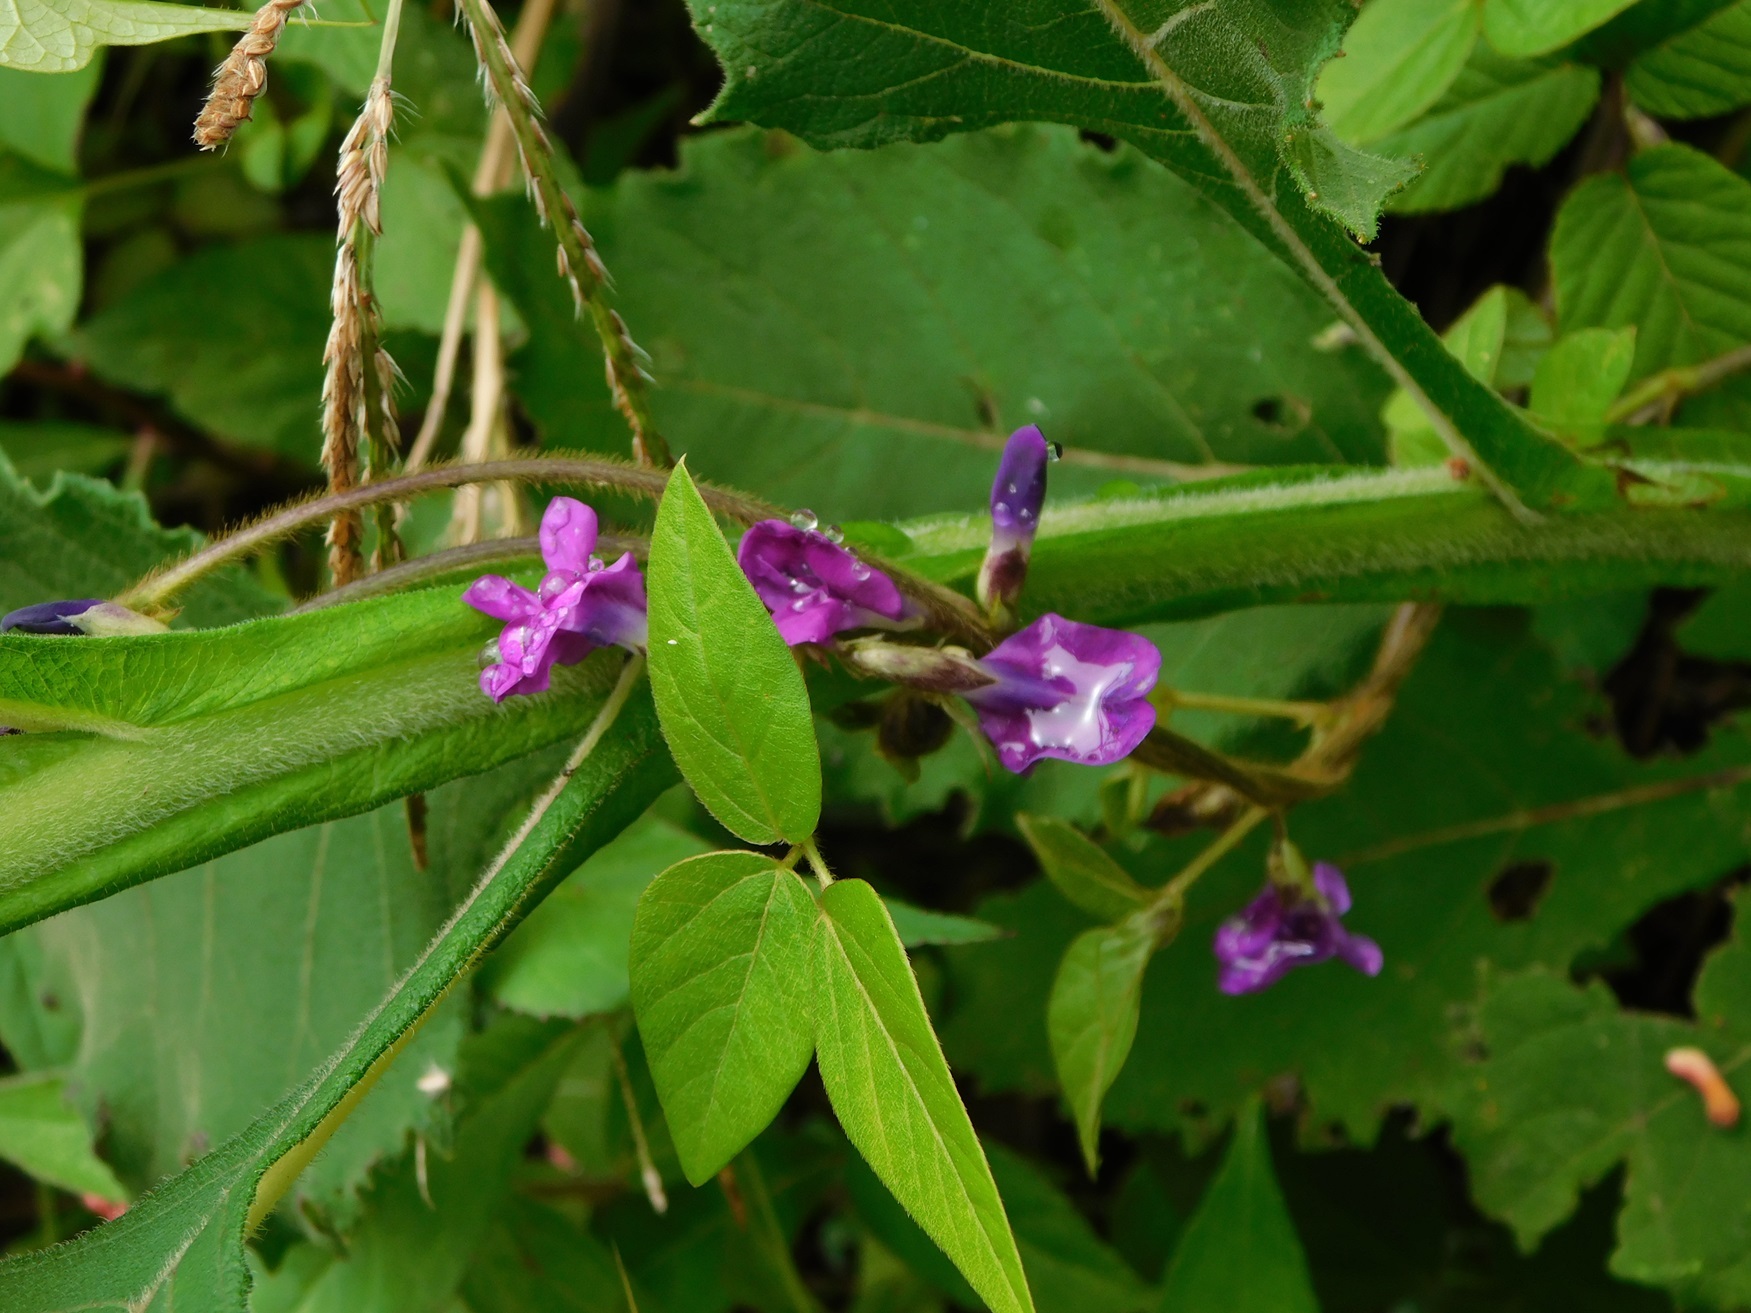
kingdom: Plantae
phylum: Tracheophyta
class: Magnoliopsida
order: Fabales
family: Fabaceae
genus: Cologania
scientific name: Cologania broussonetii
